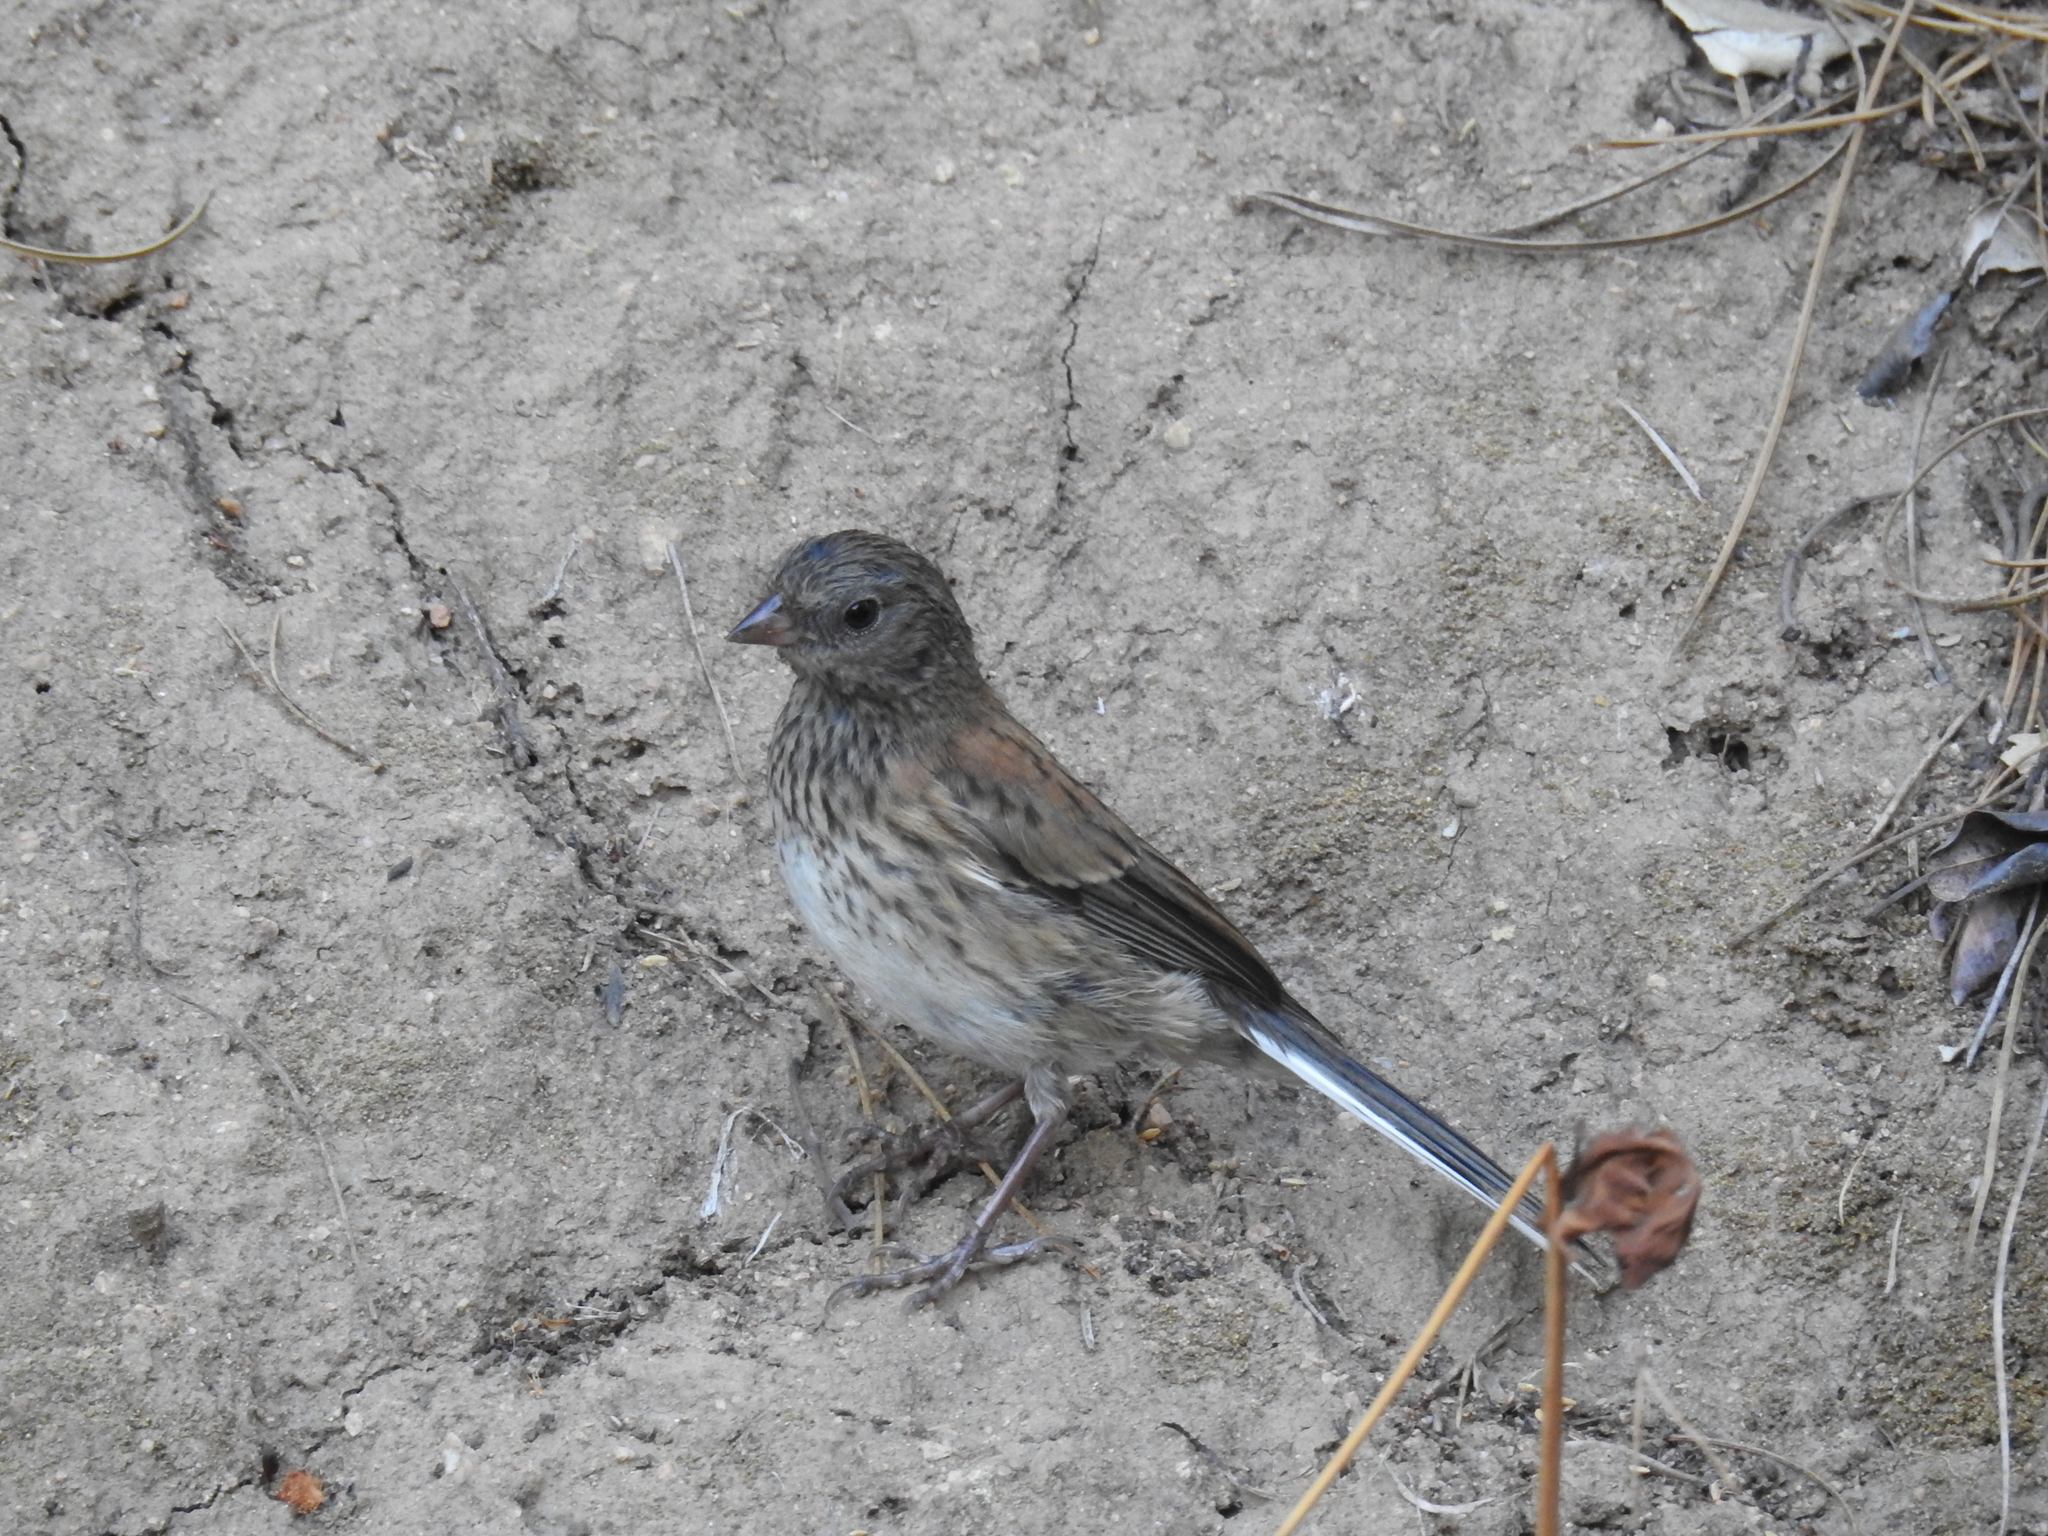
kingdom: Animalia
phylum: Chordata
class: Aves
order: Passeriformes
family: Passerellidae
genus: Junco
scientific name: Junco hyemalis
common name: Dark-eyed junco
